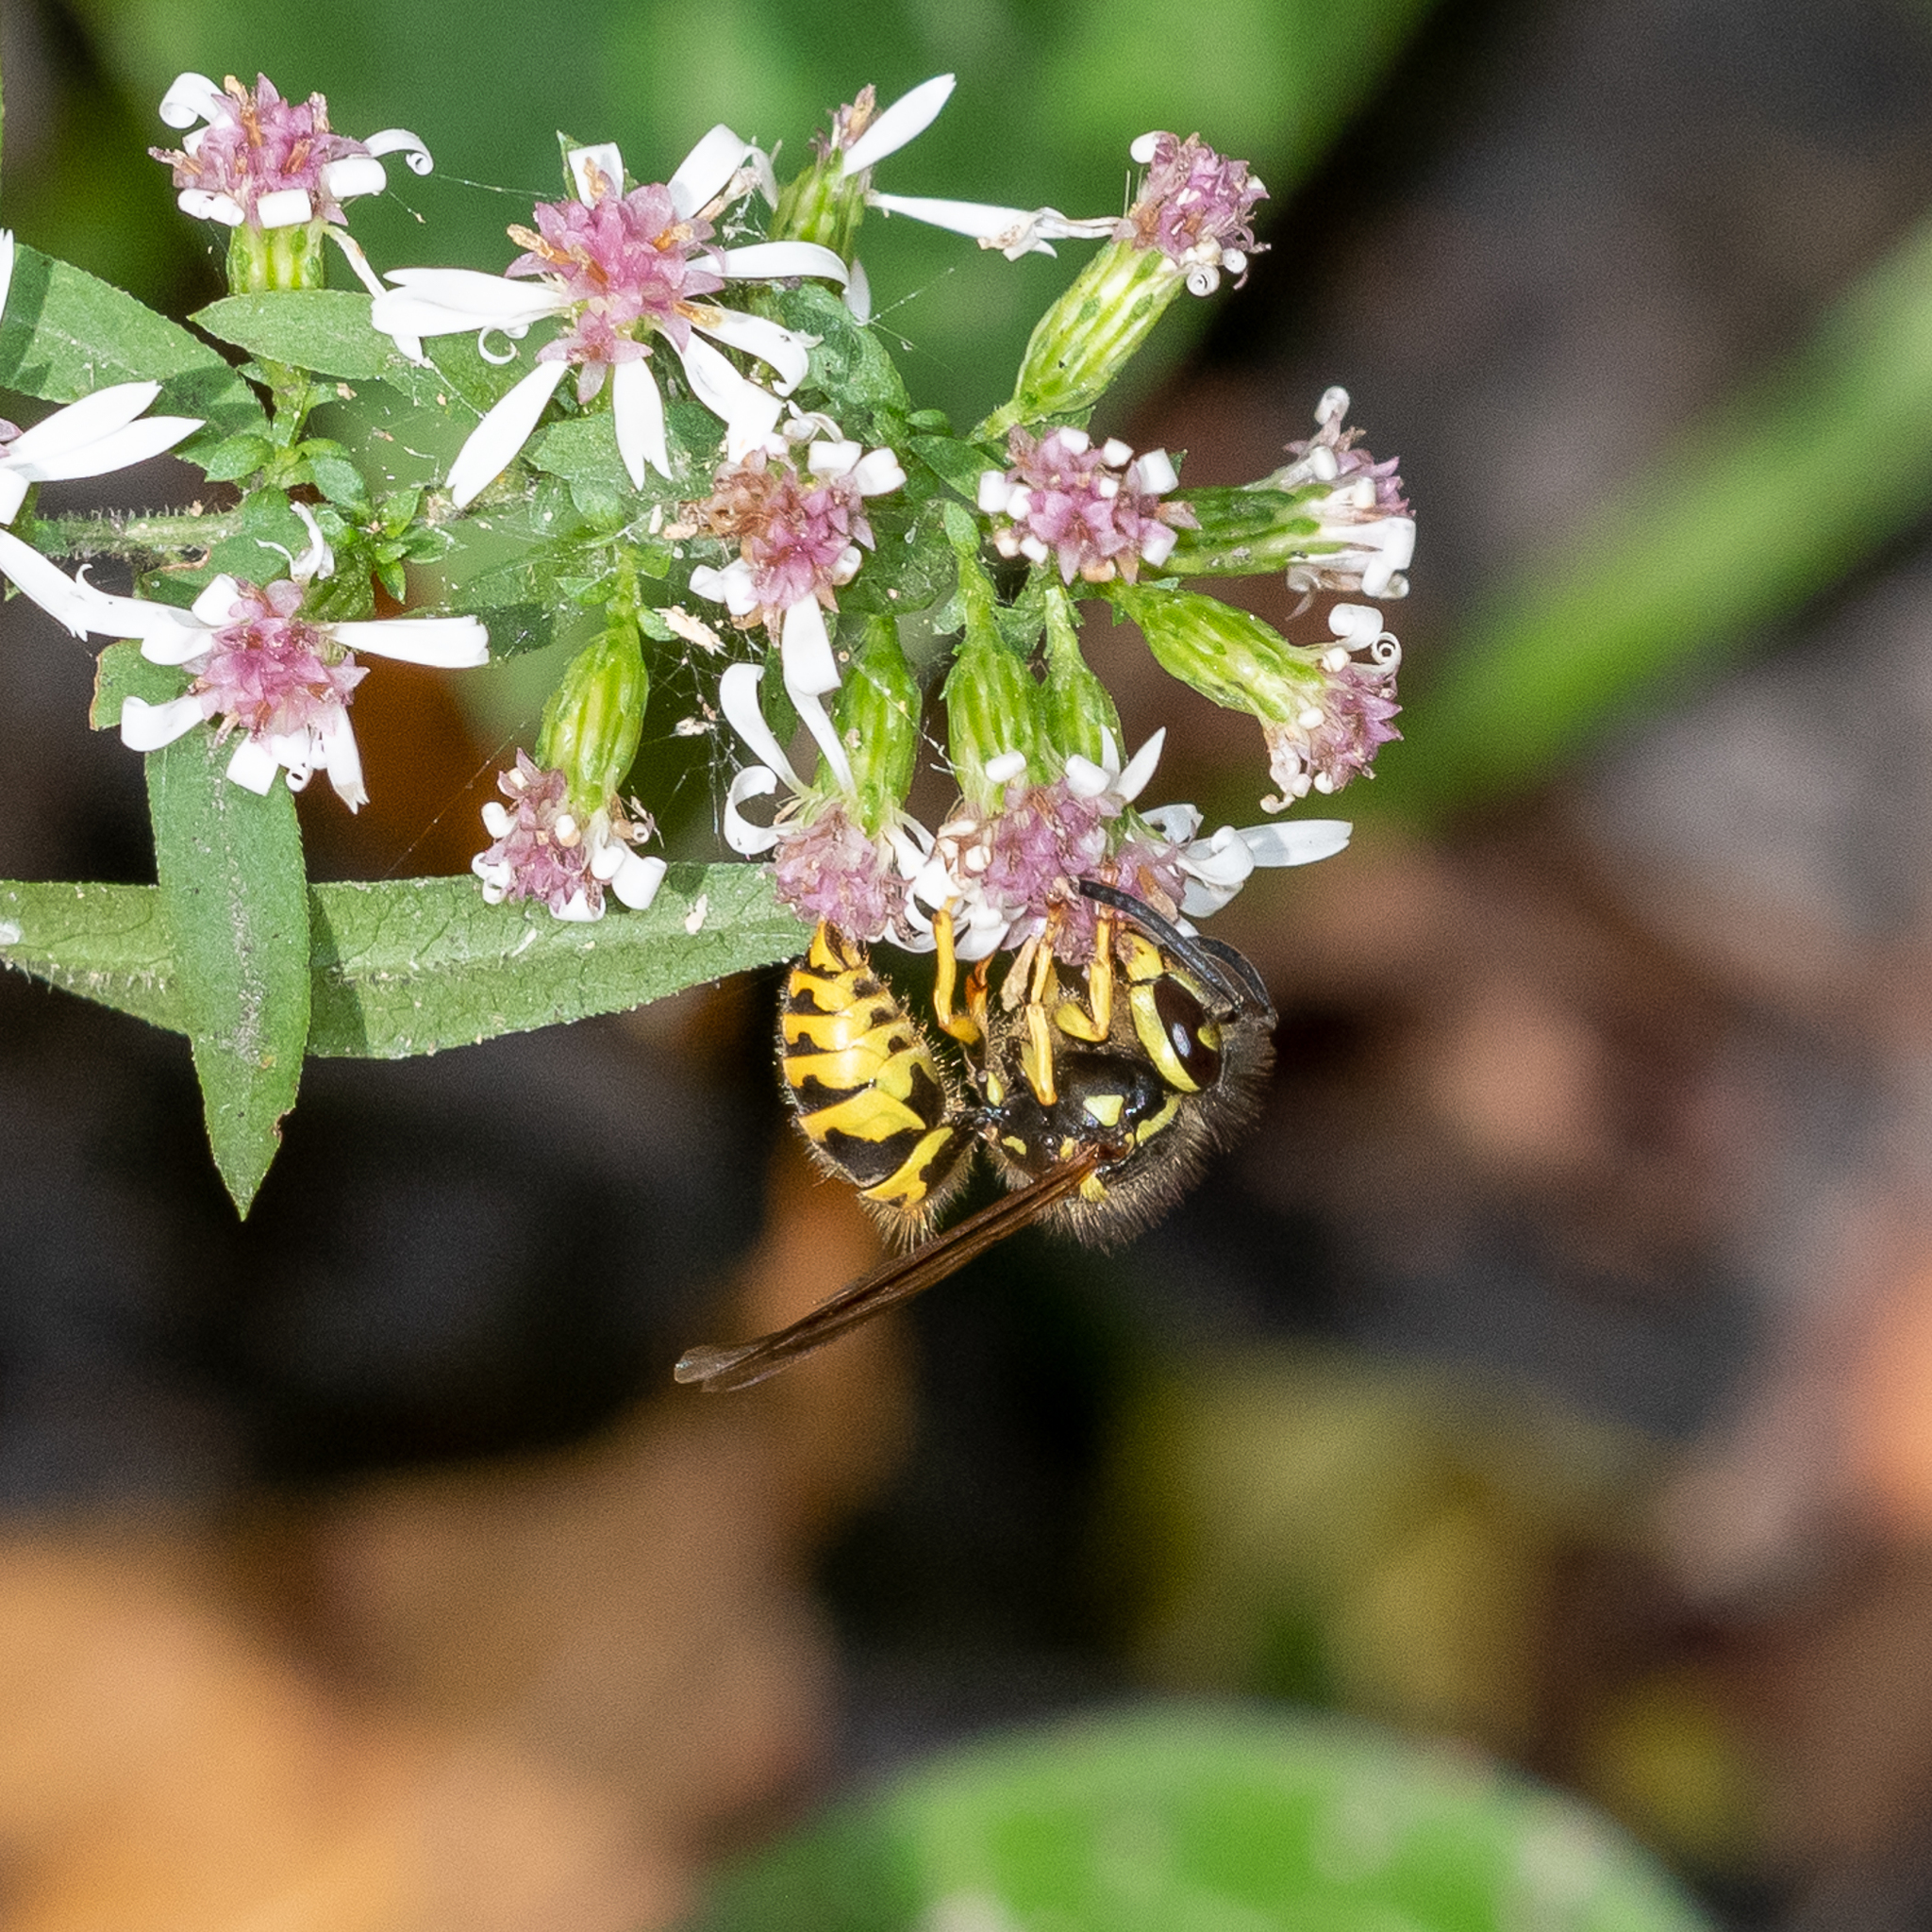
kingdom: Animalia
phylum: Arthropoda
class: Insecta
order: Hymenoptera
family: Vespidae
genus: Vespula
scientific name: Vespula maculifrons
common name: Eastern yellowjacket
